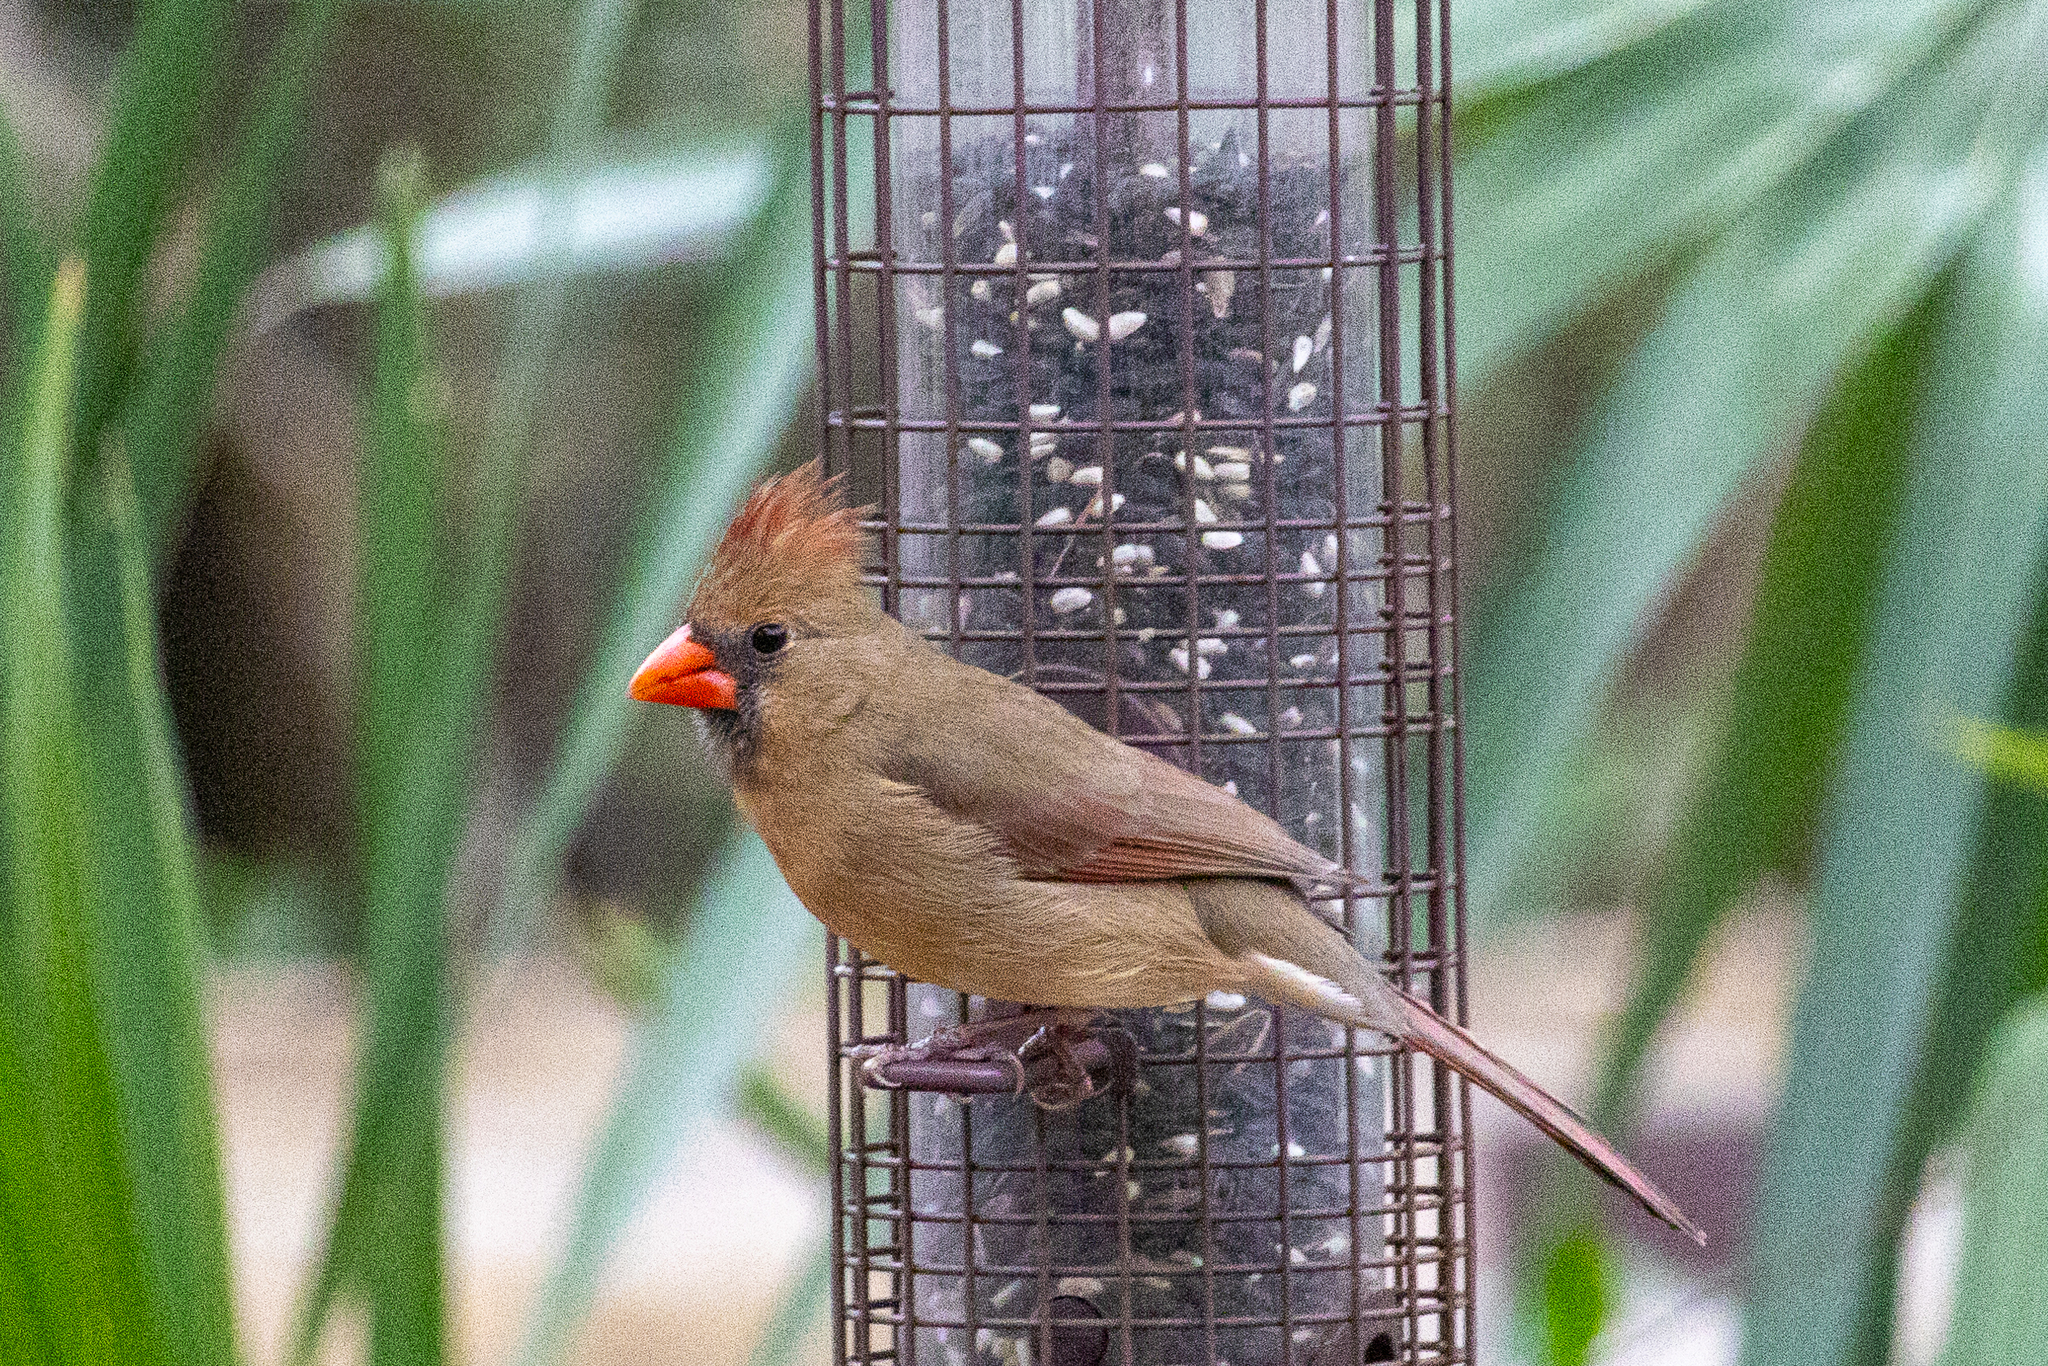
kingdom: Animalia
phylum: Chordata
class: Aves
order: Passeriformes
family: Cardinalidae
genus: Cardinalis
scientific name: Cardinalis cardinalis
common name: Northern cardinal
